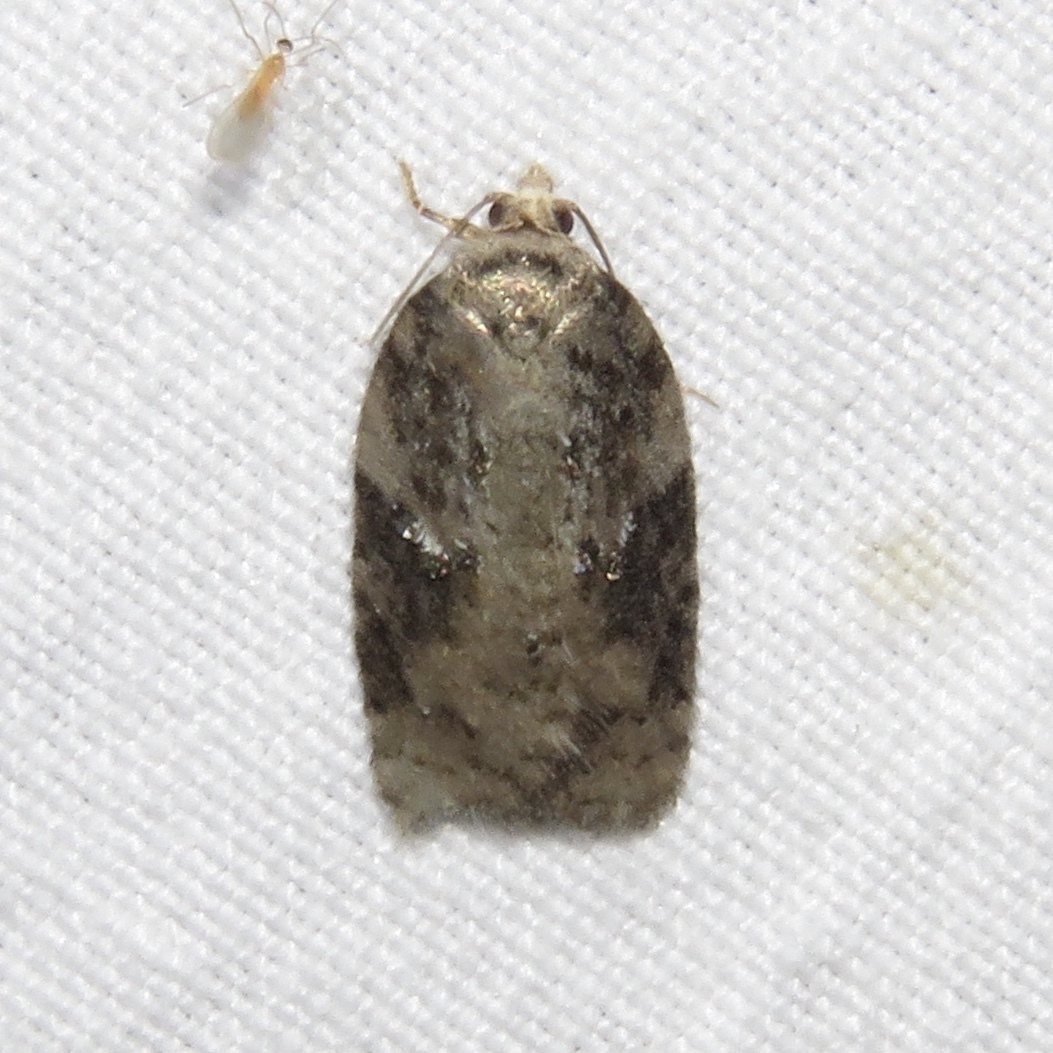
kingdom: Animalia
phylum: Arthropoda
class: Insecta
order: Lepidoptera
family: Tortricidae
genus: Acleris
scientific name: Acleris
